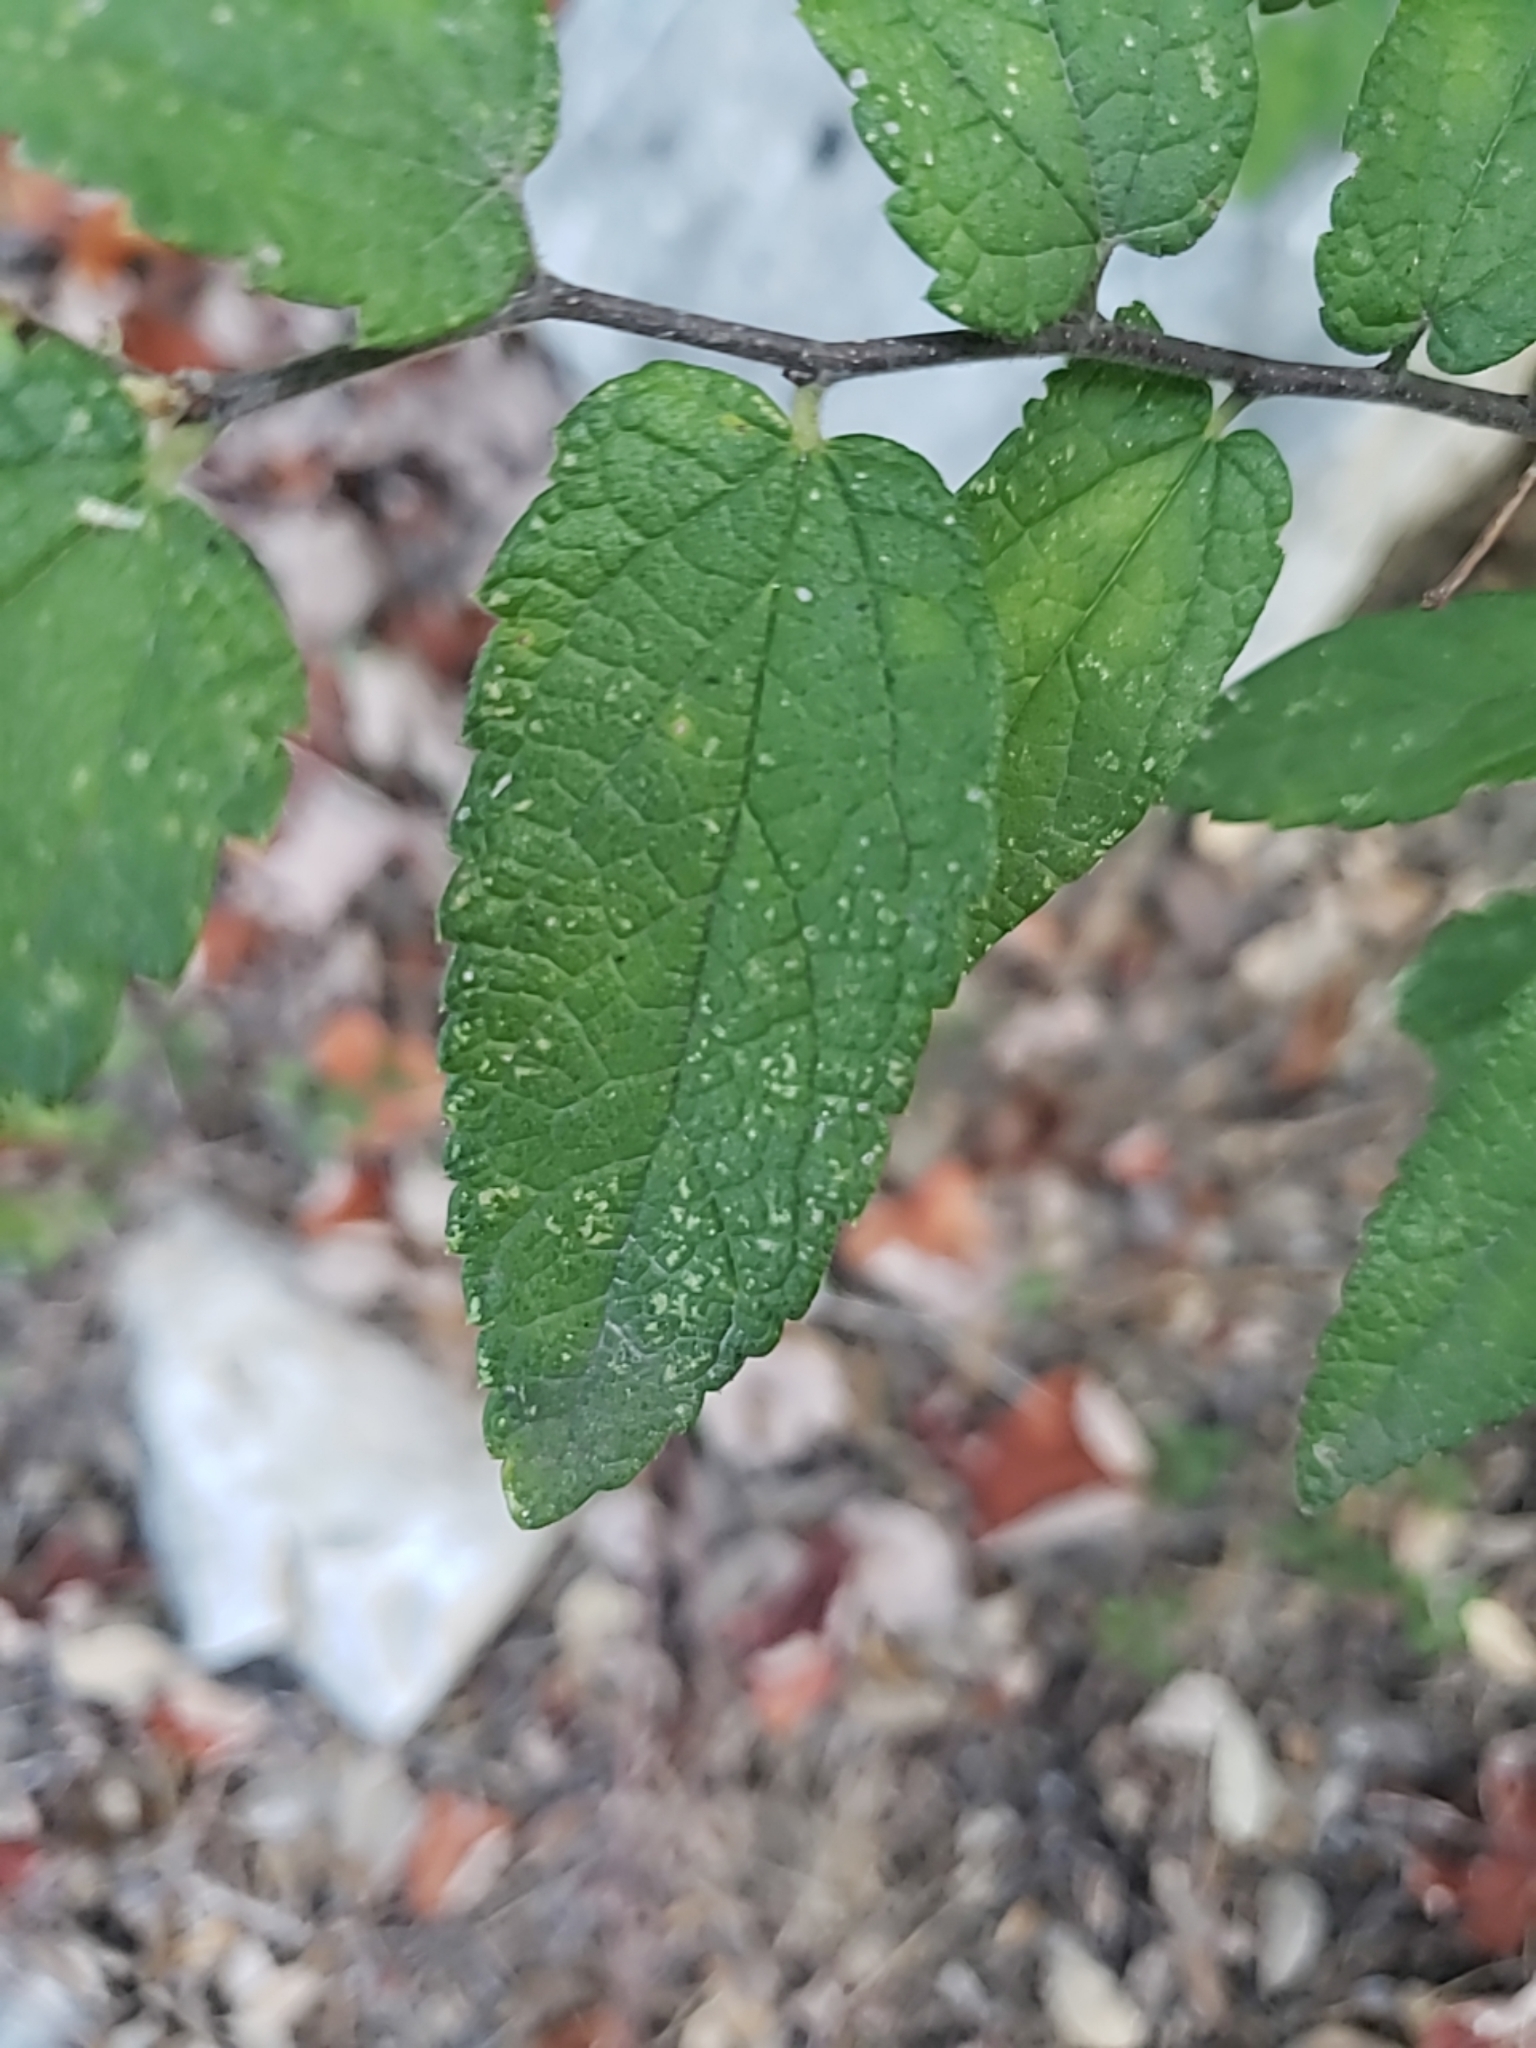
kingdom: Plantae
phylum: Tracheophyta
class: Magnoliopsida
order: Rosales
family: Cannabaceae
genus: Celtis
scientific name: Celtis reticulata
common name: Netleaf hackberry
